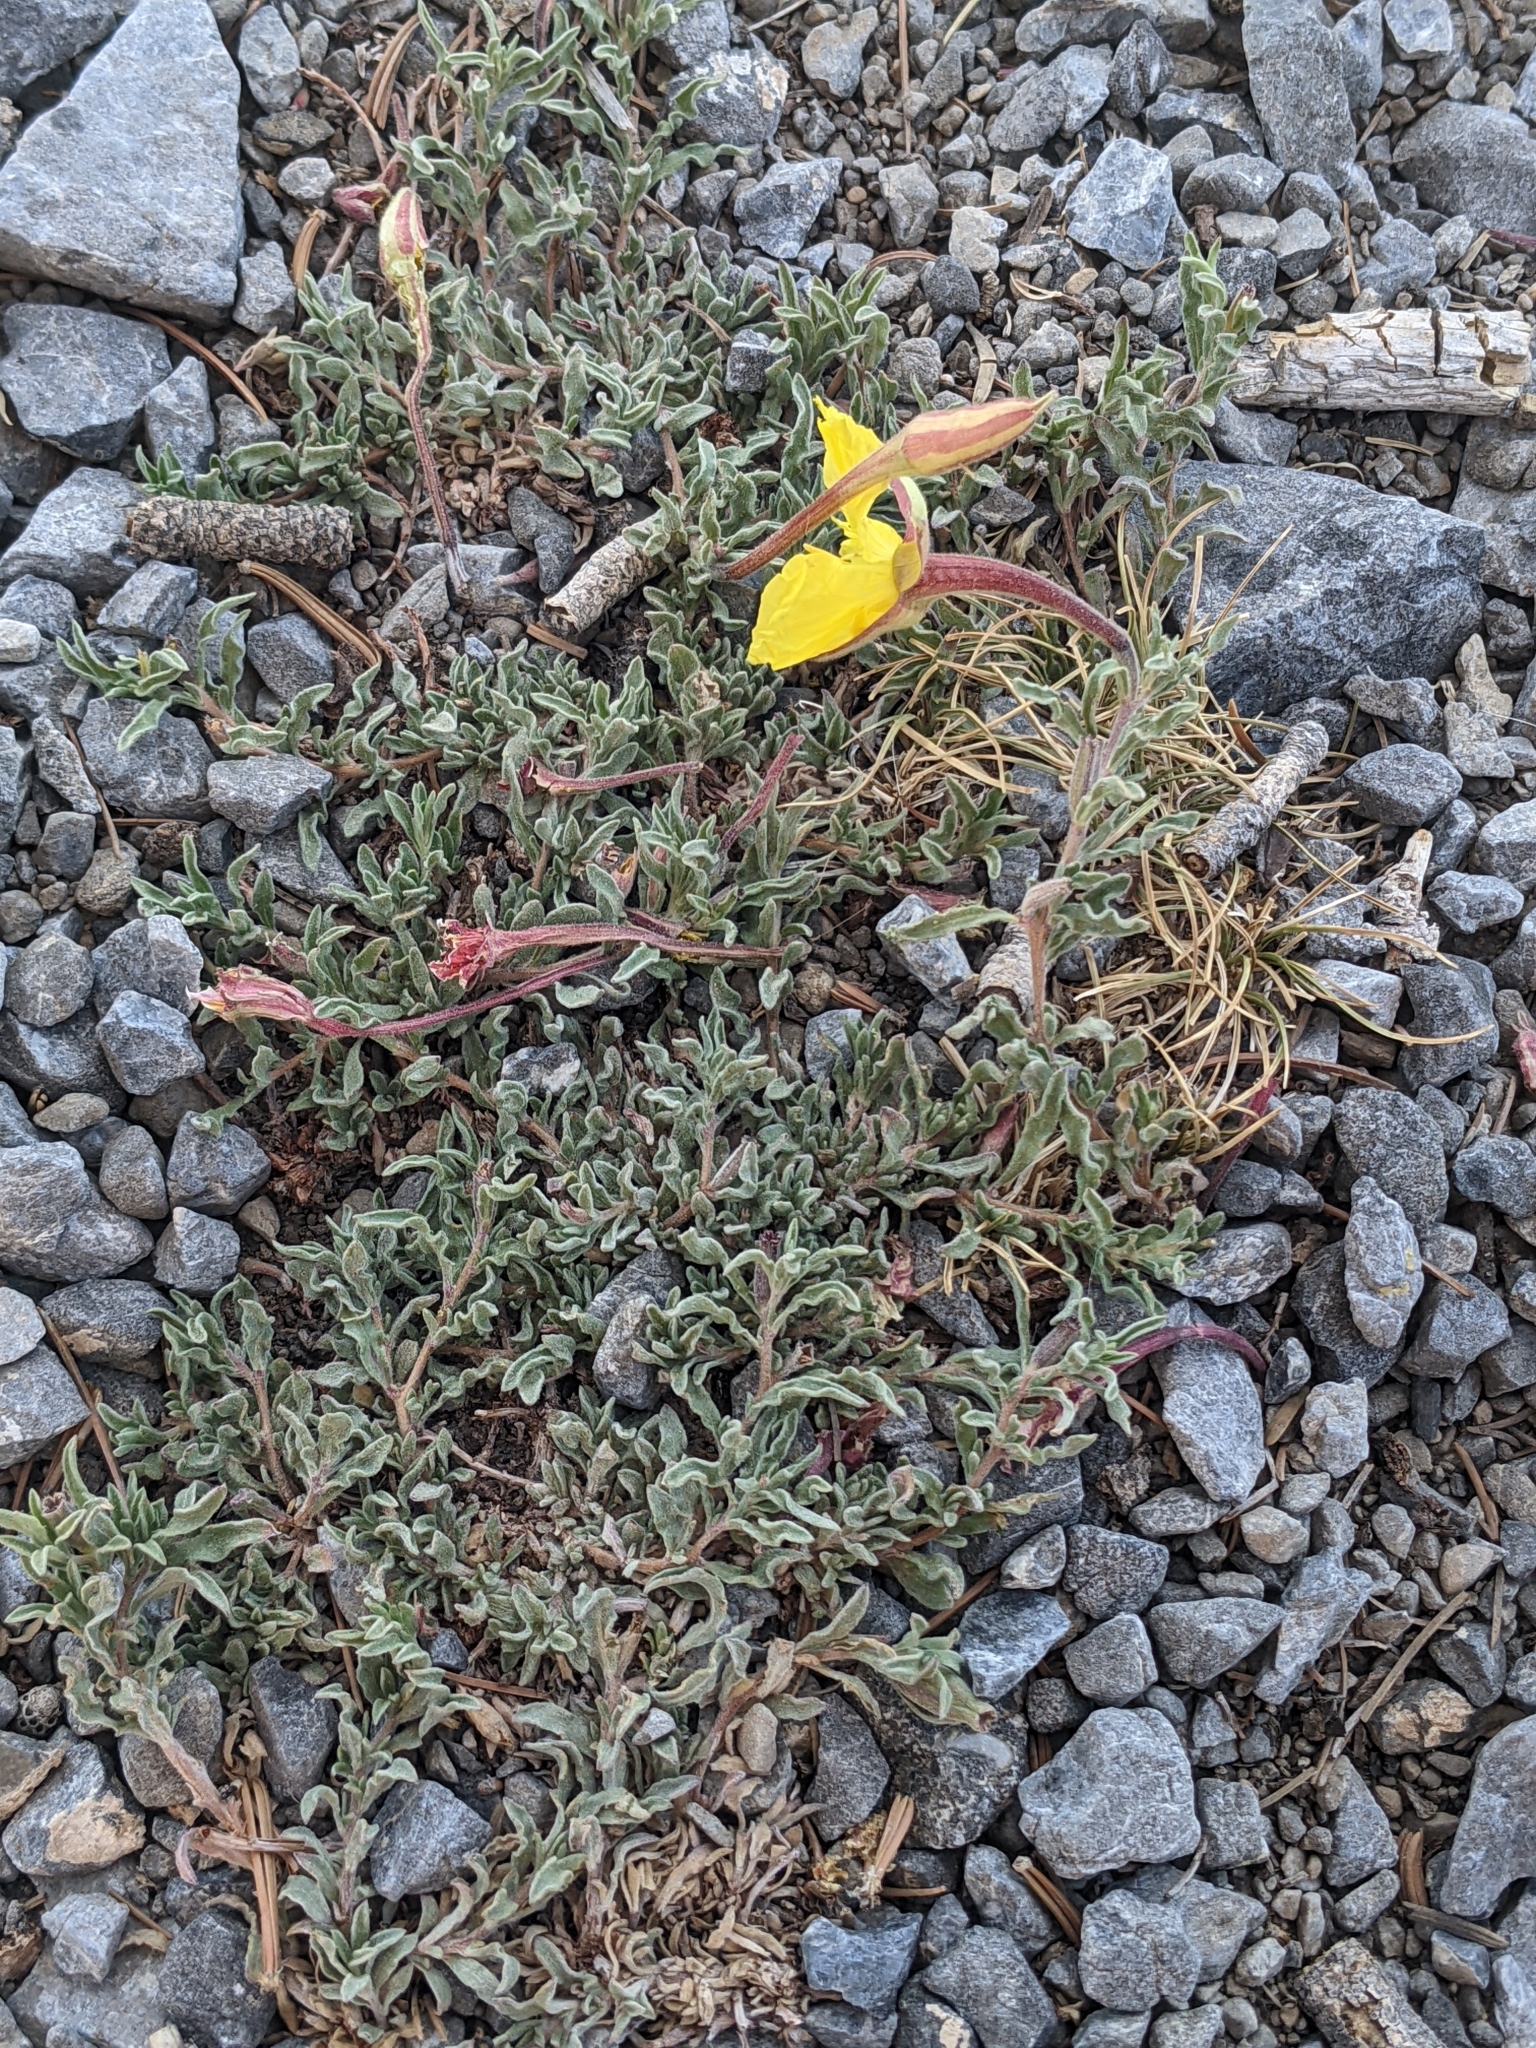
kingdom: Plantae
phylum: Tracheophyta
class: Magnoliopsida
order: Myrtales
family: Onagraceae
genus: Oenothera
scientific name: Oenothera lavandulifolia
